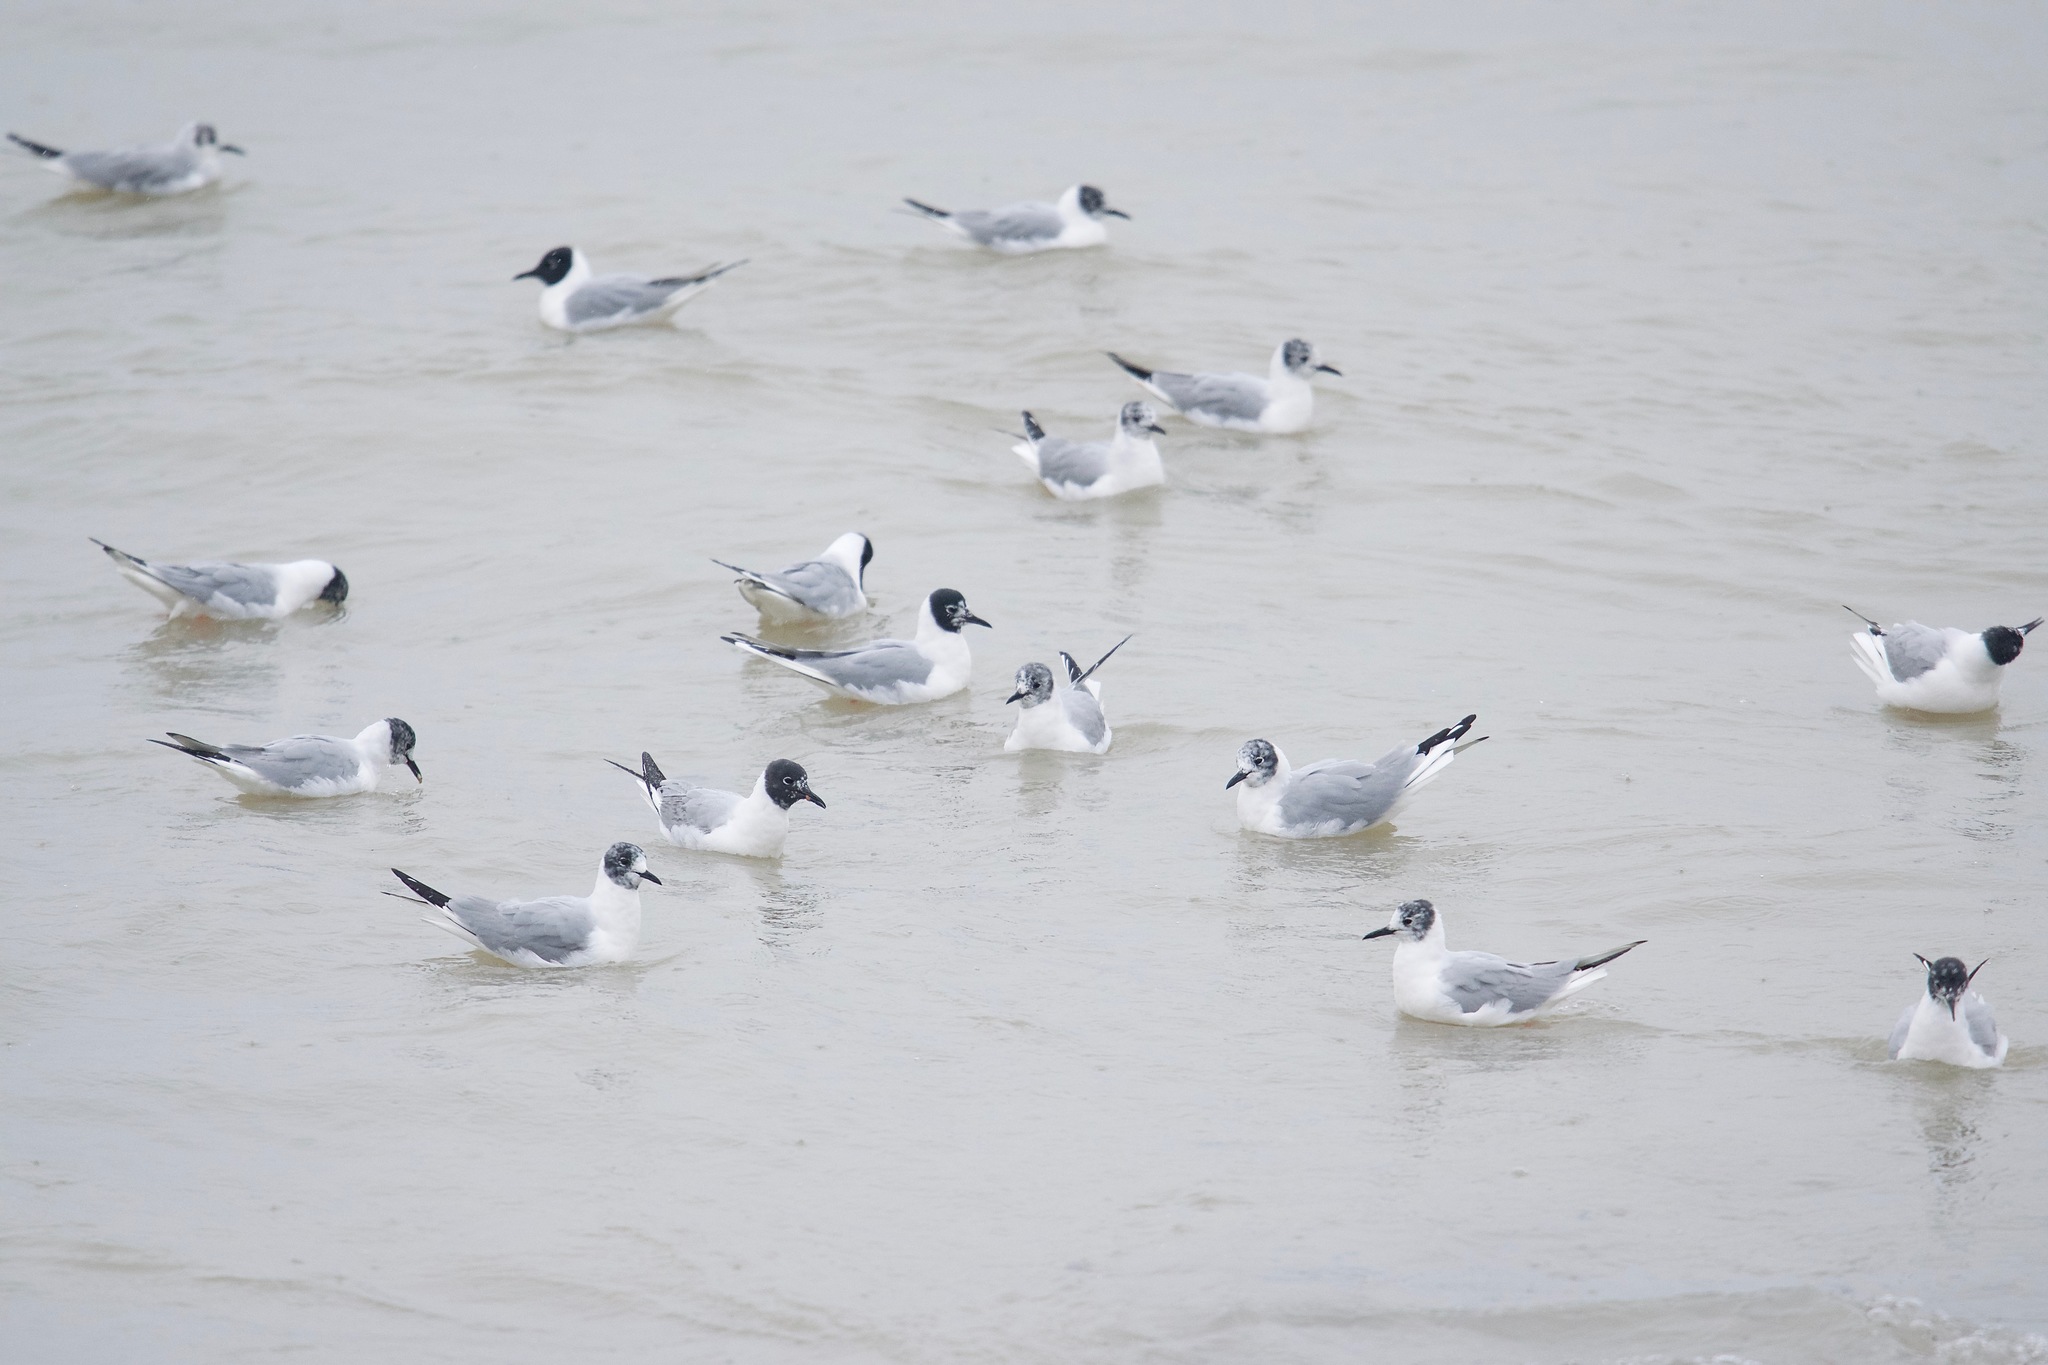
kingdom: Animalia
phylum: Chordata
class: Aves
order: Charadriiformes
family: Laridae
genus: Chroicocephalus
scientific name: Chroicocephalus philadelphia
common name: Bonaparte's gull
